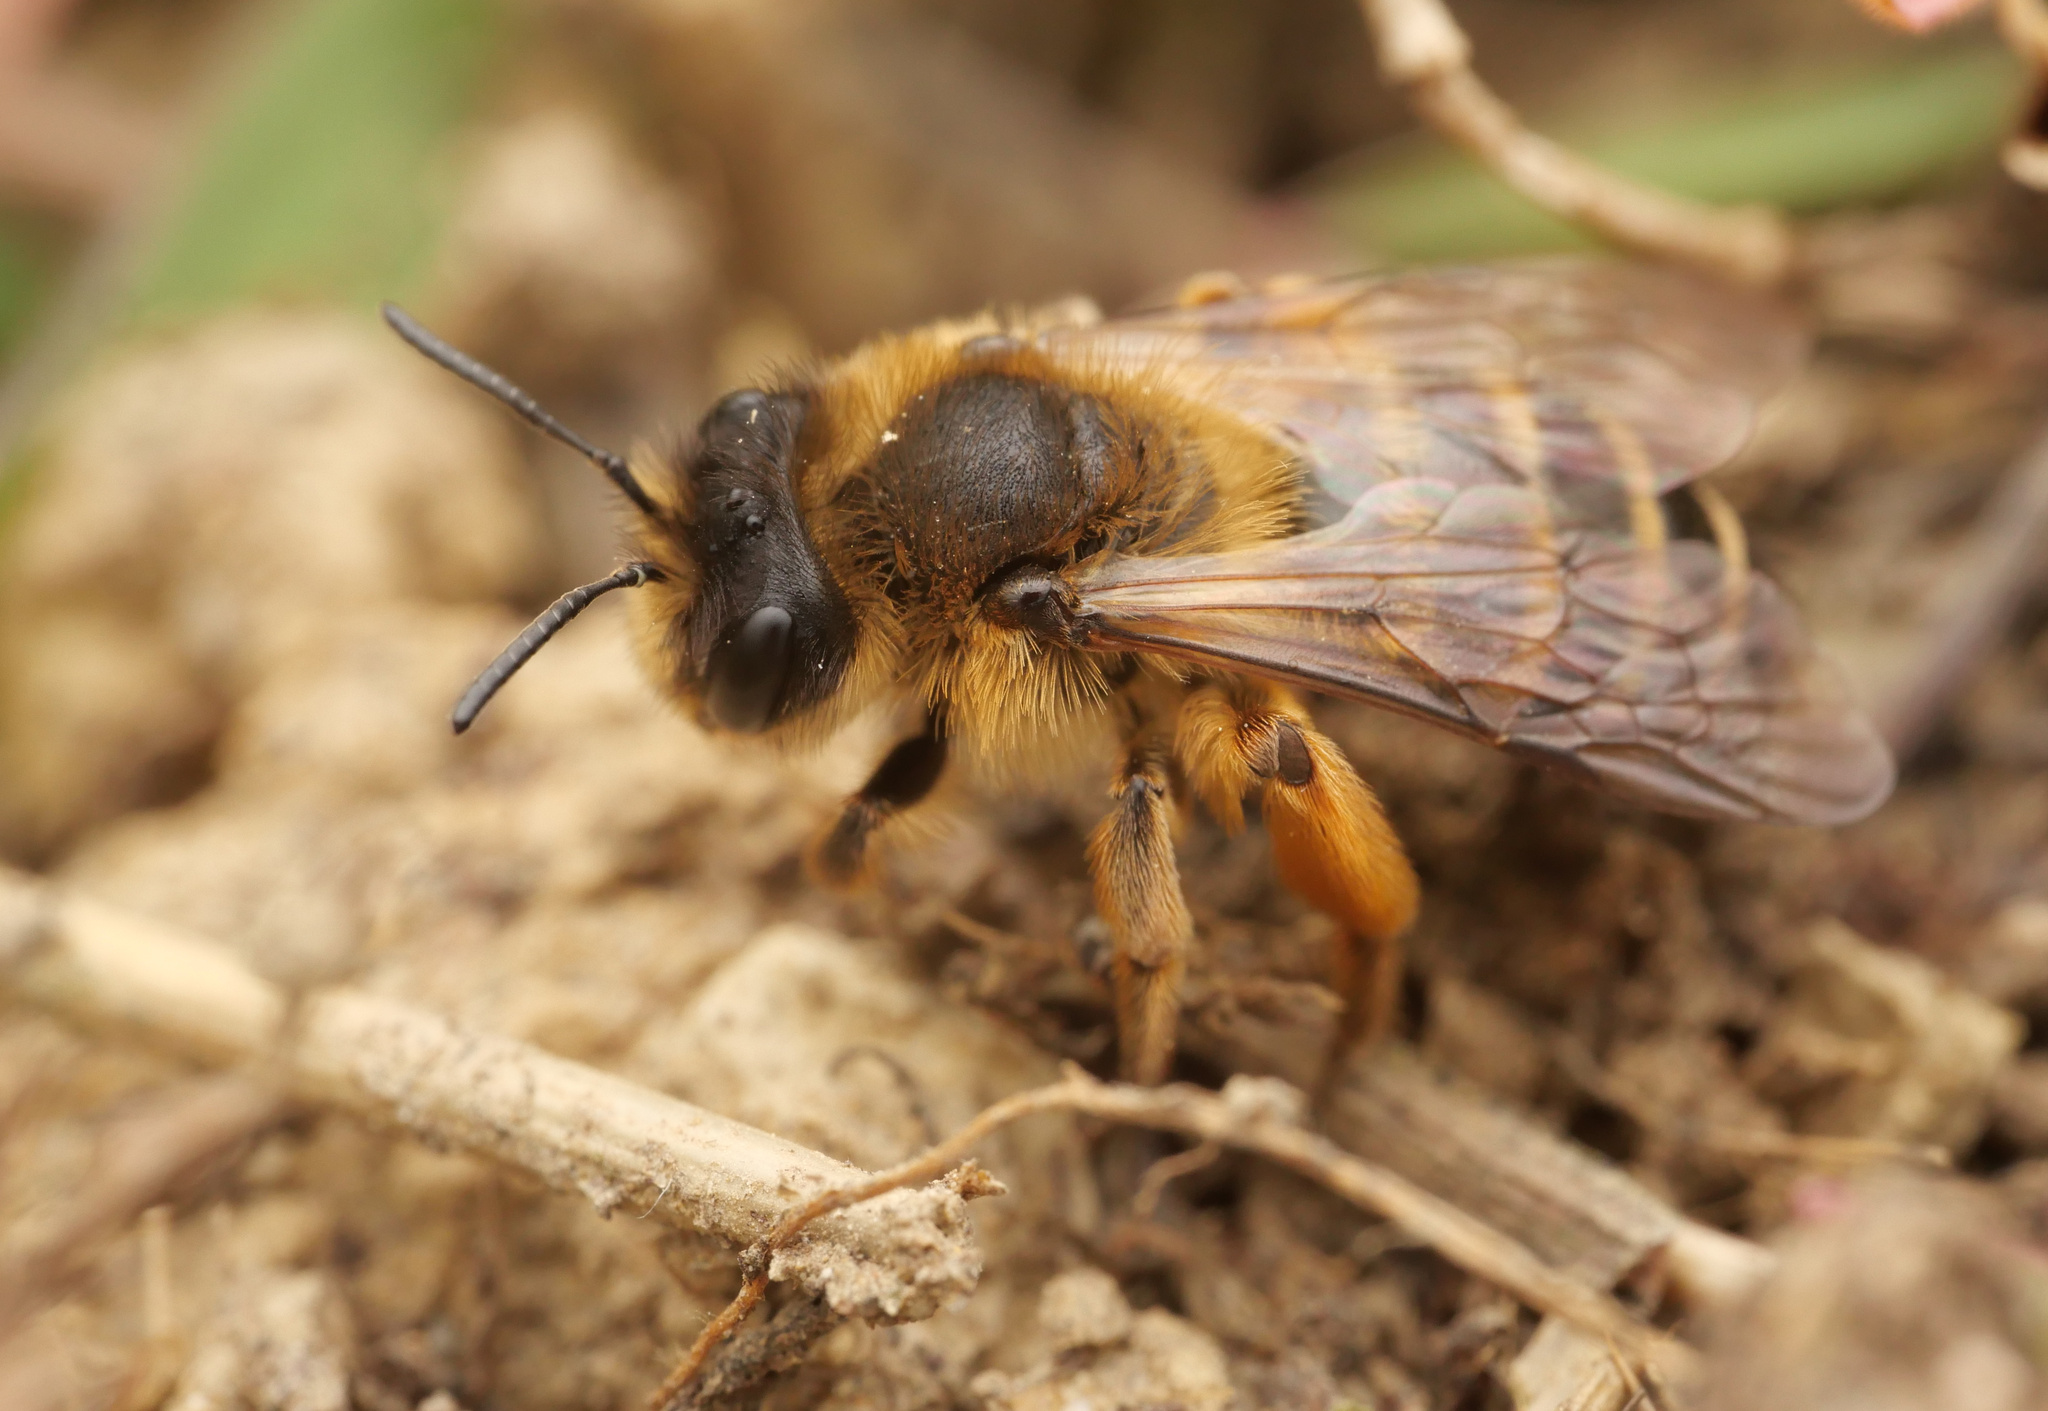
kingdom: Animalia
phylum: Arthropoda
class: Insecta
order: Hymenoptera
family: Andrenidae
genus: Andrena
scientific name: Andrena flavipes
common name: Yellow-legged mining bee
